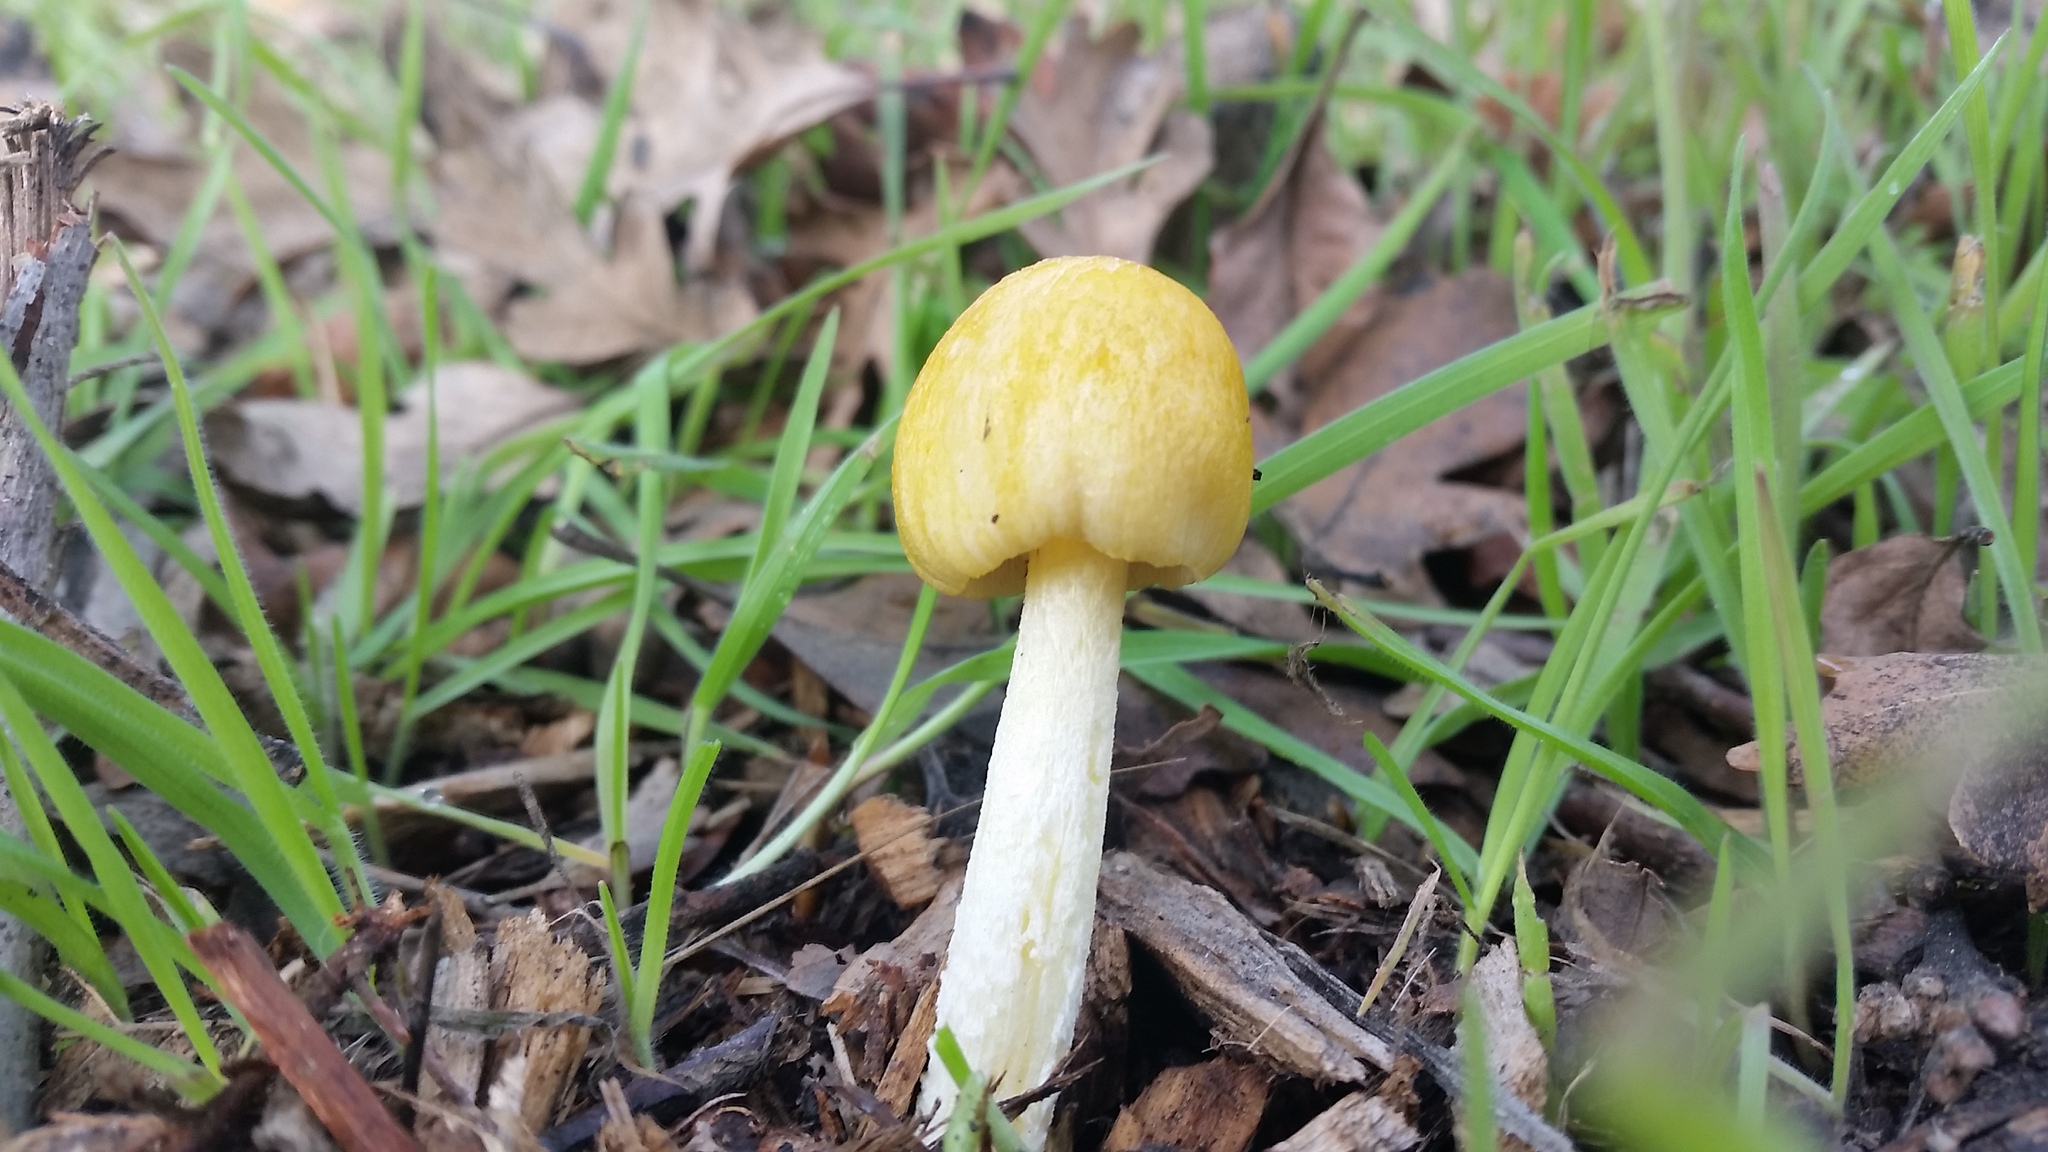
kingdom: Fungi
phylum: Basidiomycota
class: Agaricomycetes
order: Agaricales
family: Bolbitiaceae
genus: Bolbitius
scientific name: Bolbitius titubans
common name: Yellow fieldcap
